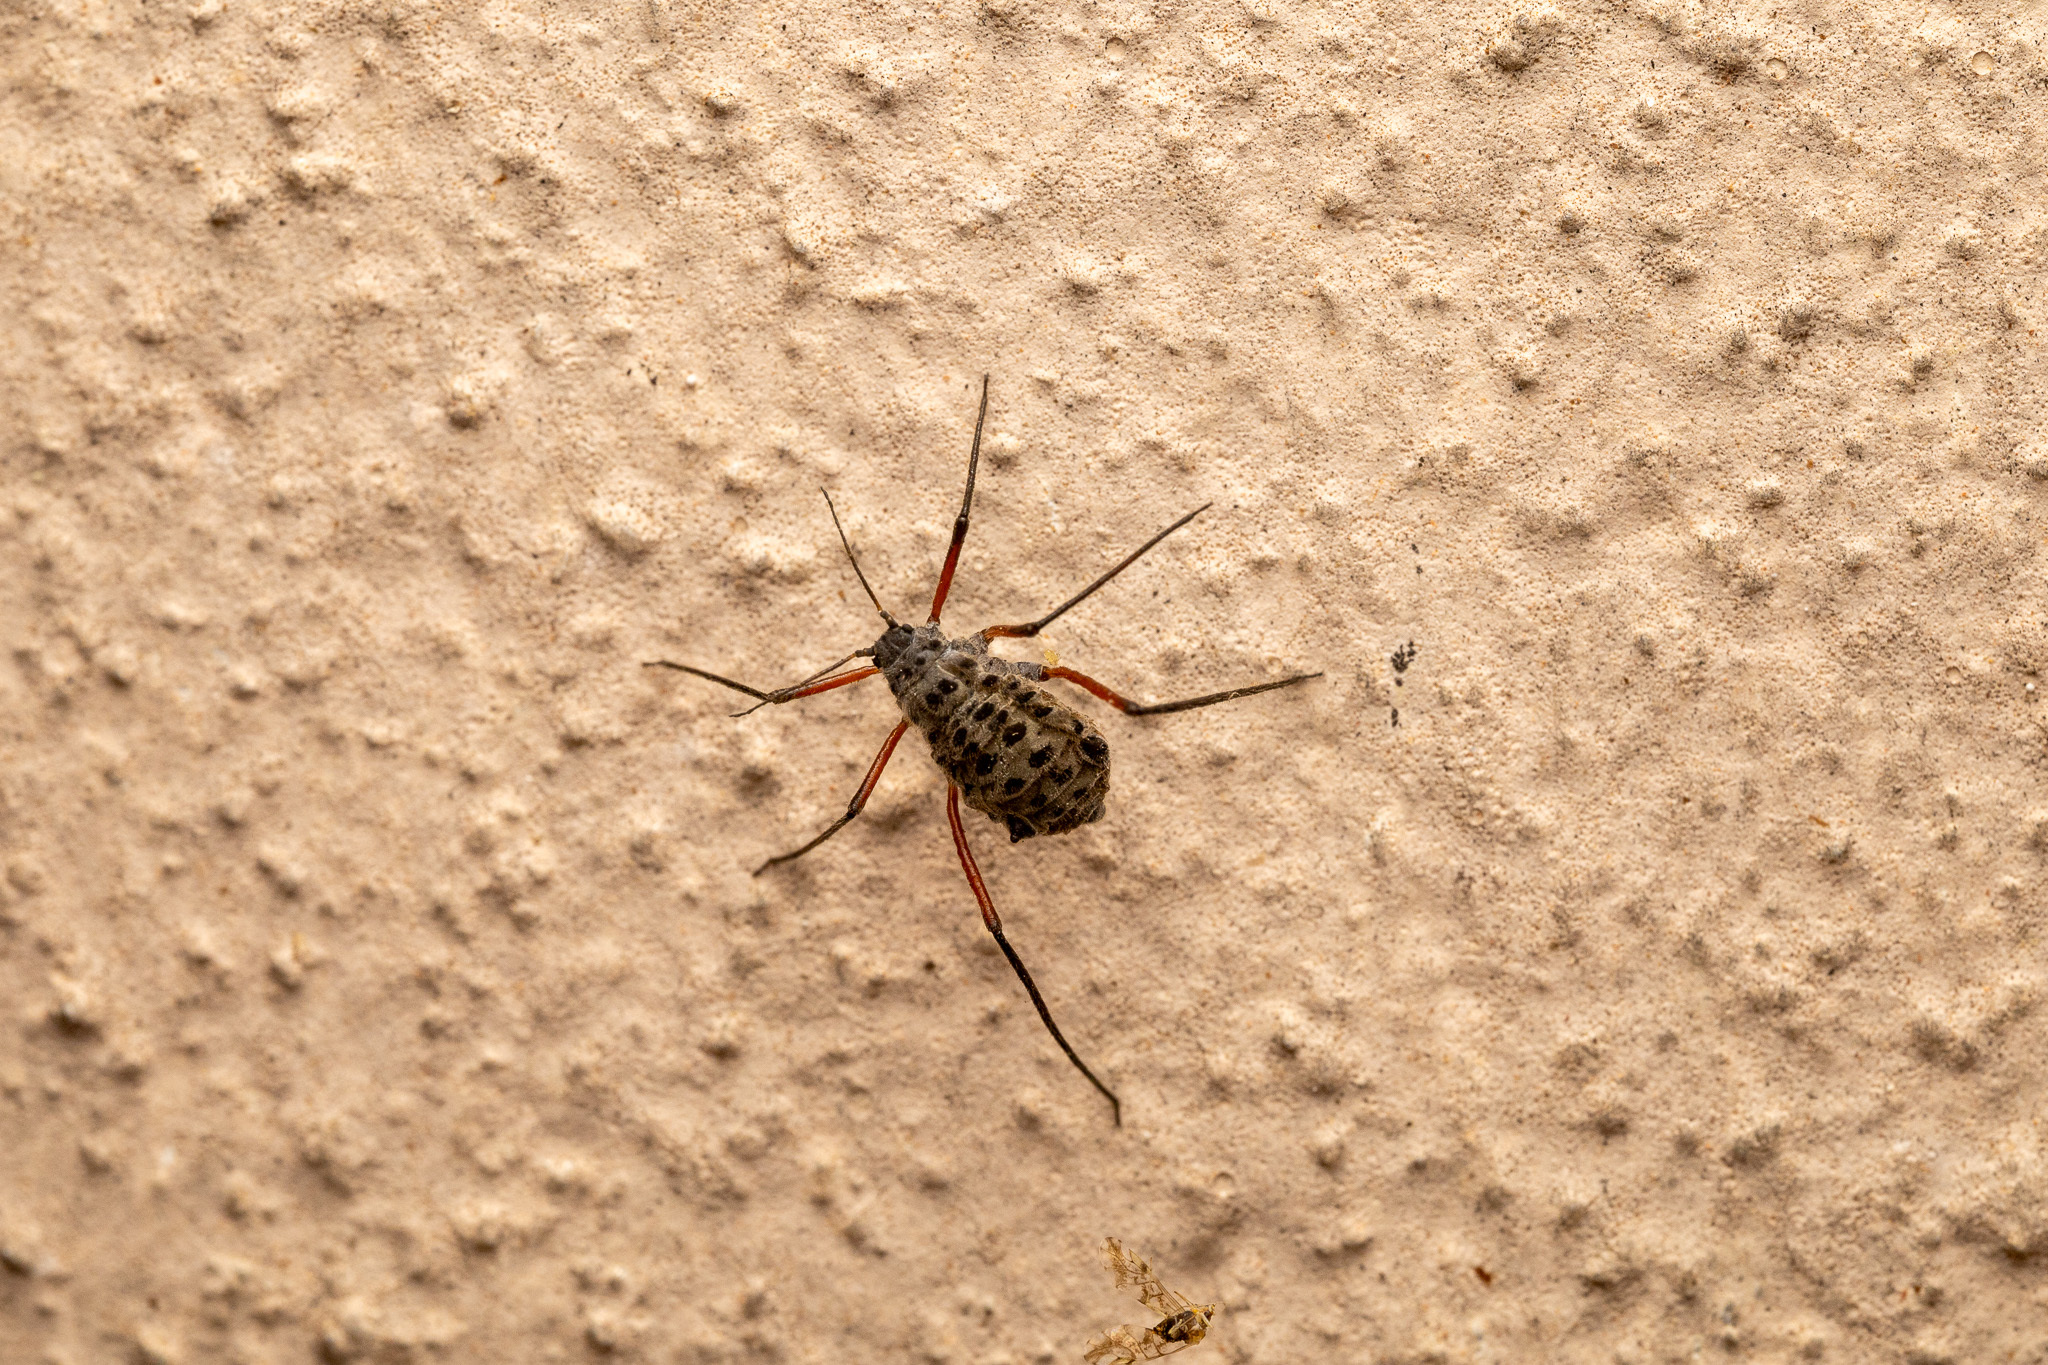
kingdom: Animalia
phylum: Arthropoda
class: Insecta
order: Hemiptera
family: Aphididae
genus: Longistigma
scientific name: Longistigma caryae
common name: Giant bark aphid
